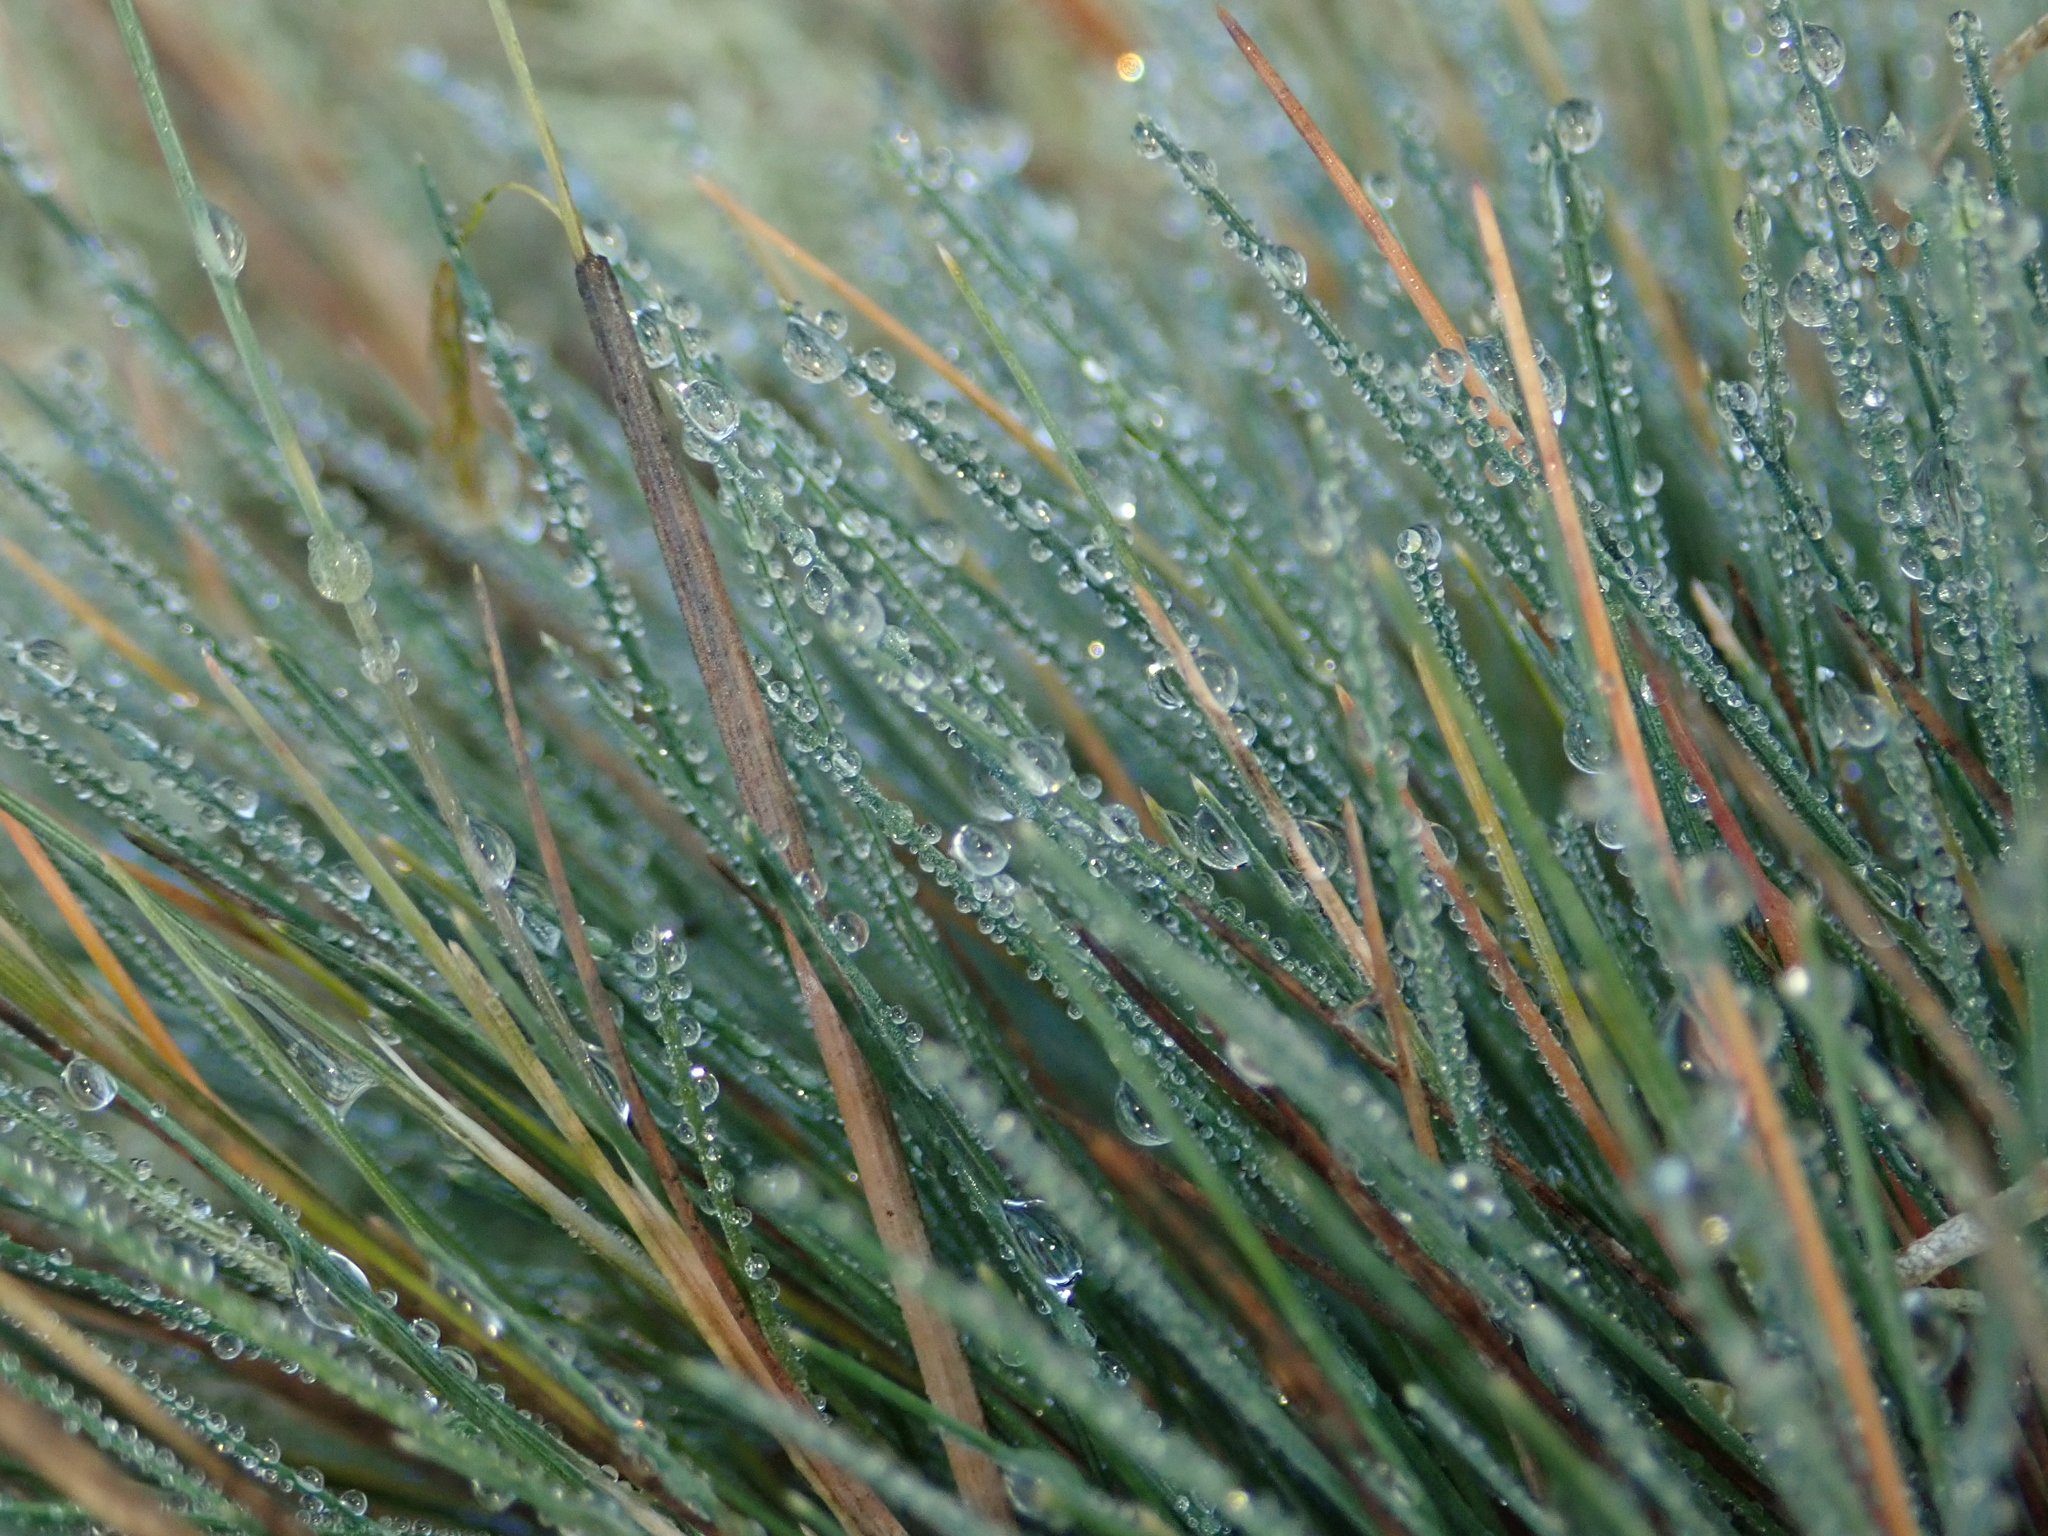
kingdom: Plantae
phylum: Tracheophyta
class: Liliopsida
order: Poales
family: Poaceae
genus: Corynephorus
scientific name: Corynephorus canescens
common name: Grey hair-grass
